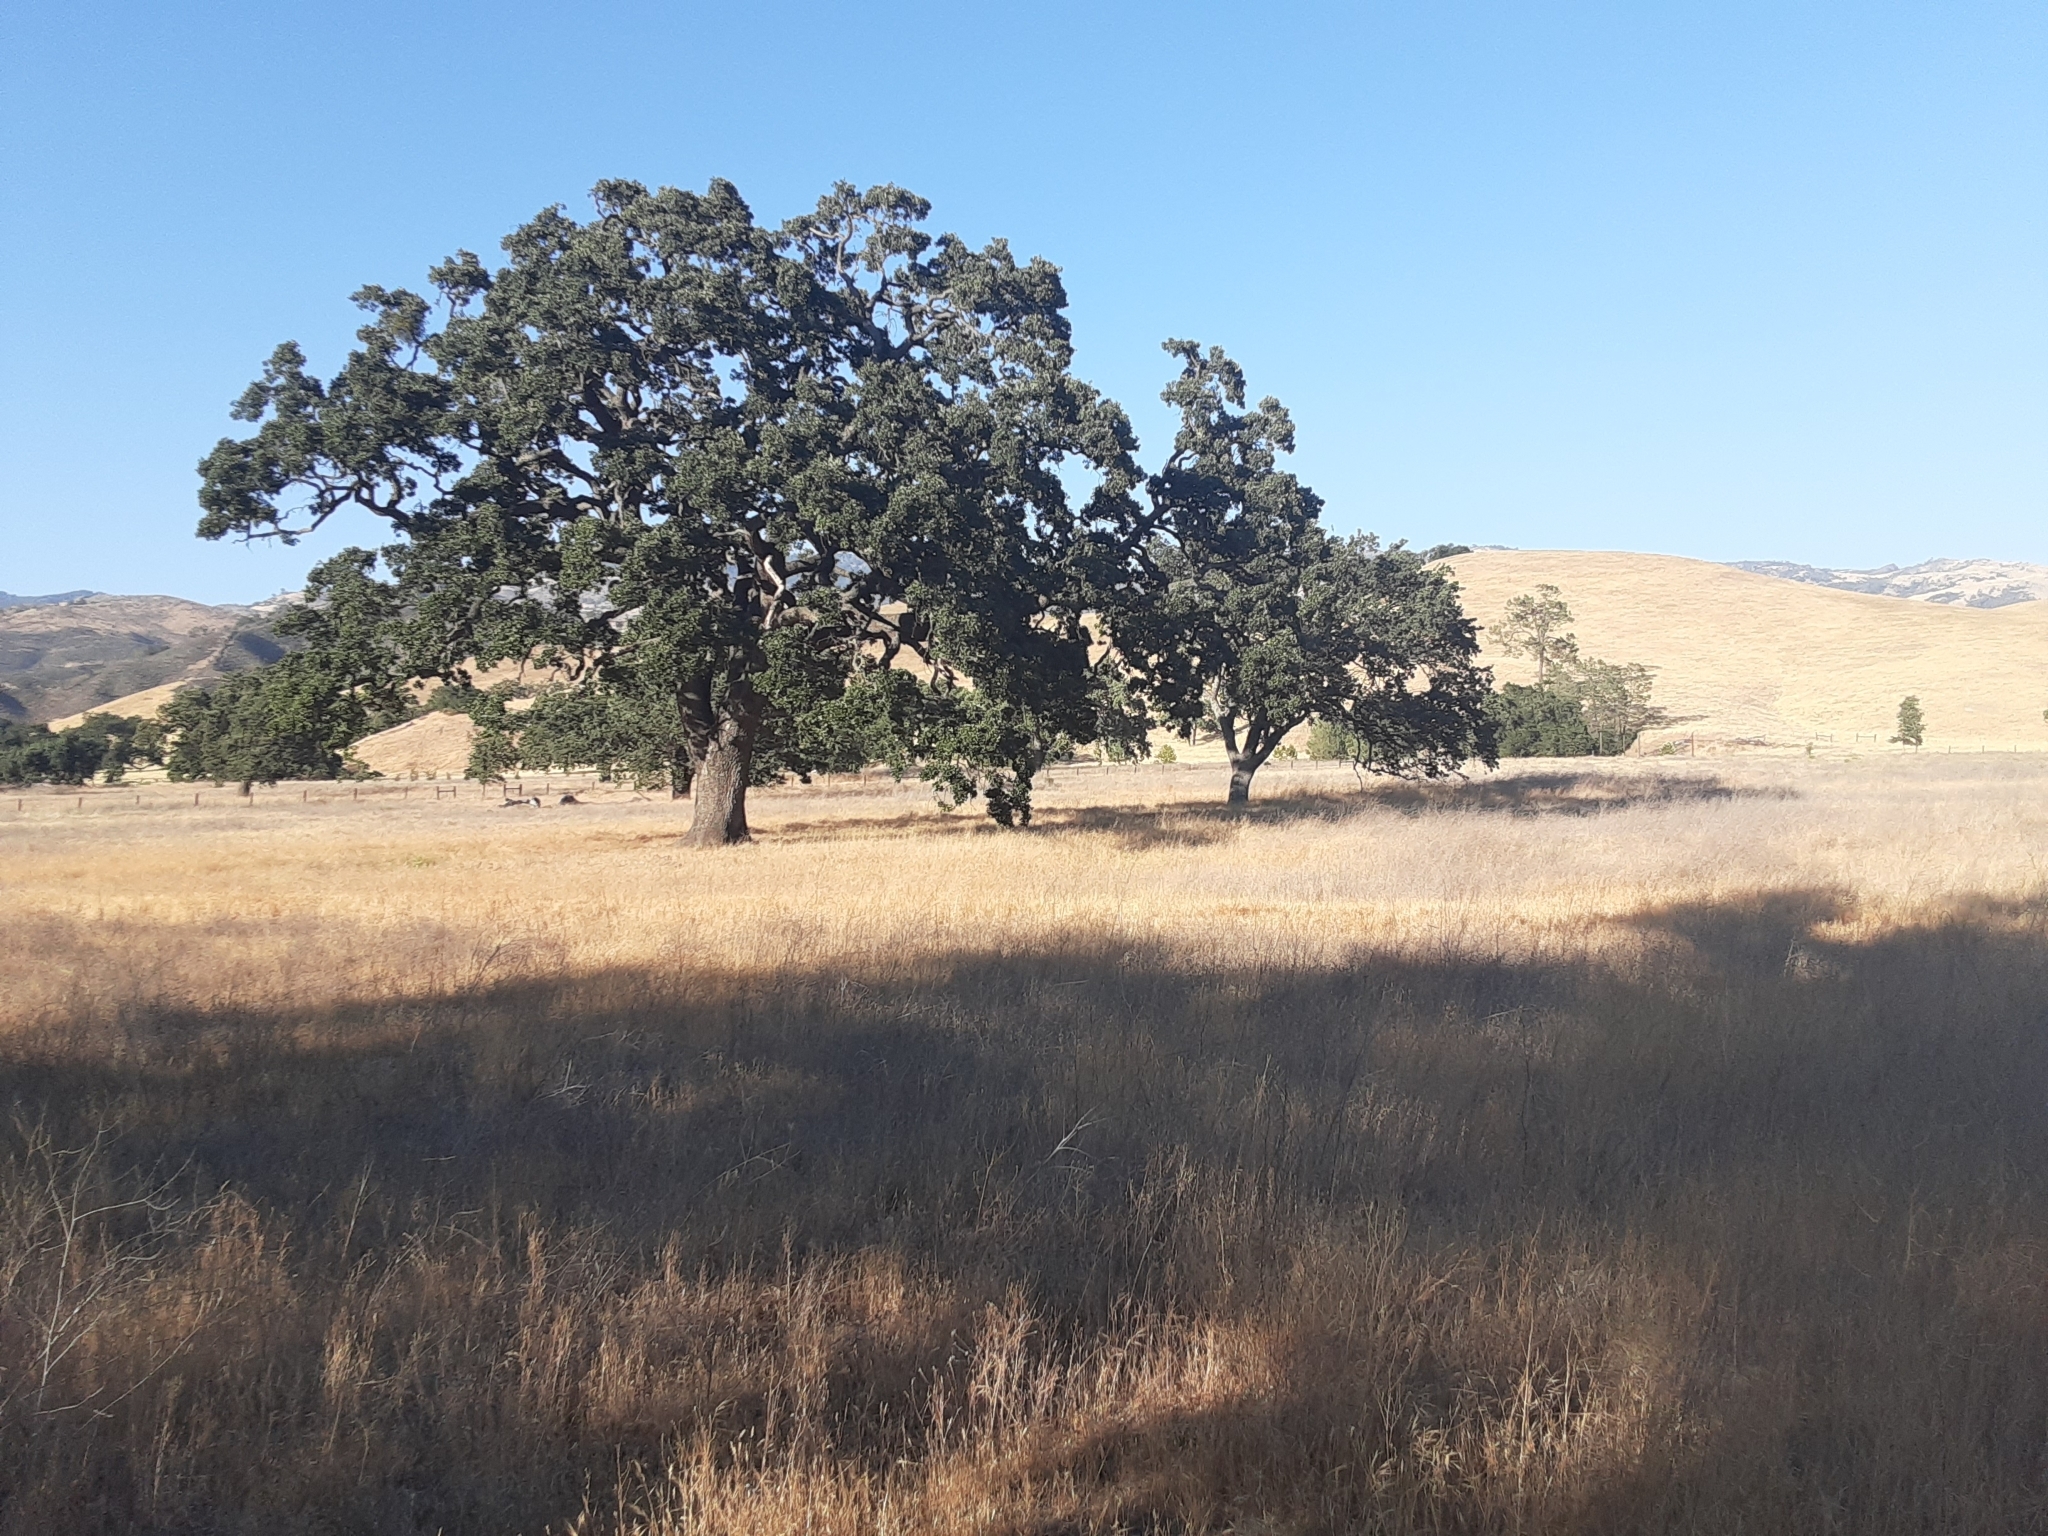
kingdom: Plantae
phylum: Tracheophyta
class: Magnoliopsida
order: Fagales
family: Fagaceae
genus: Quercus
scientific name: Quercus lobata
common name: Valley oak
